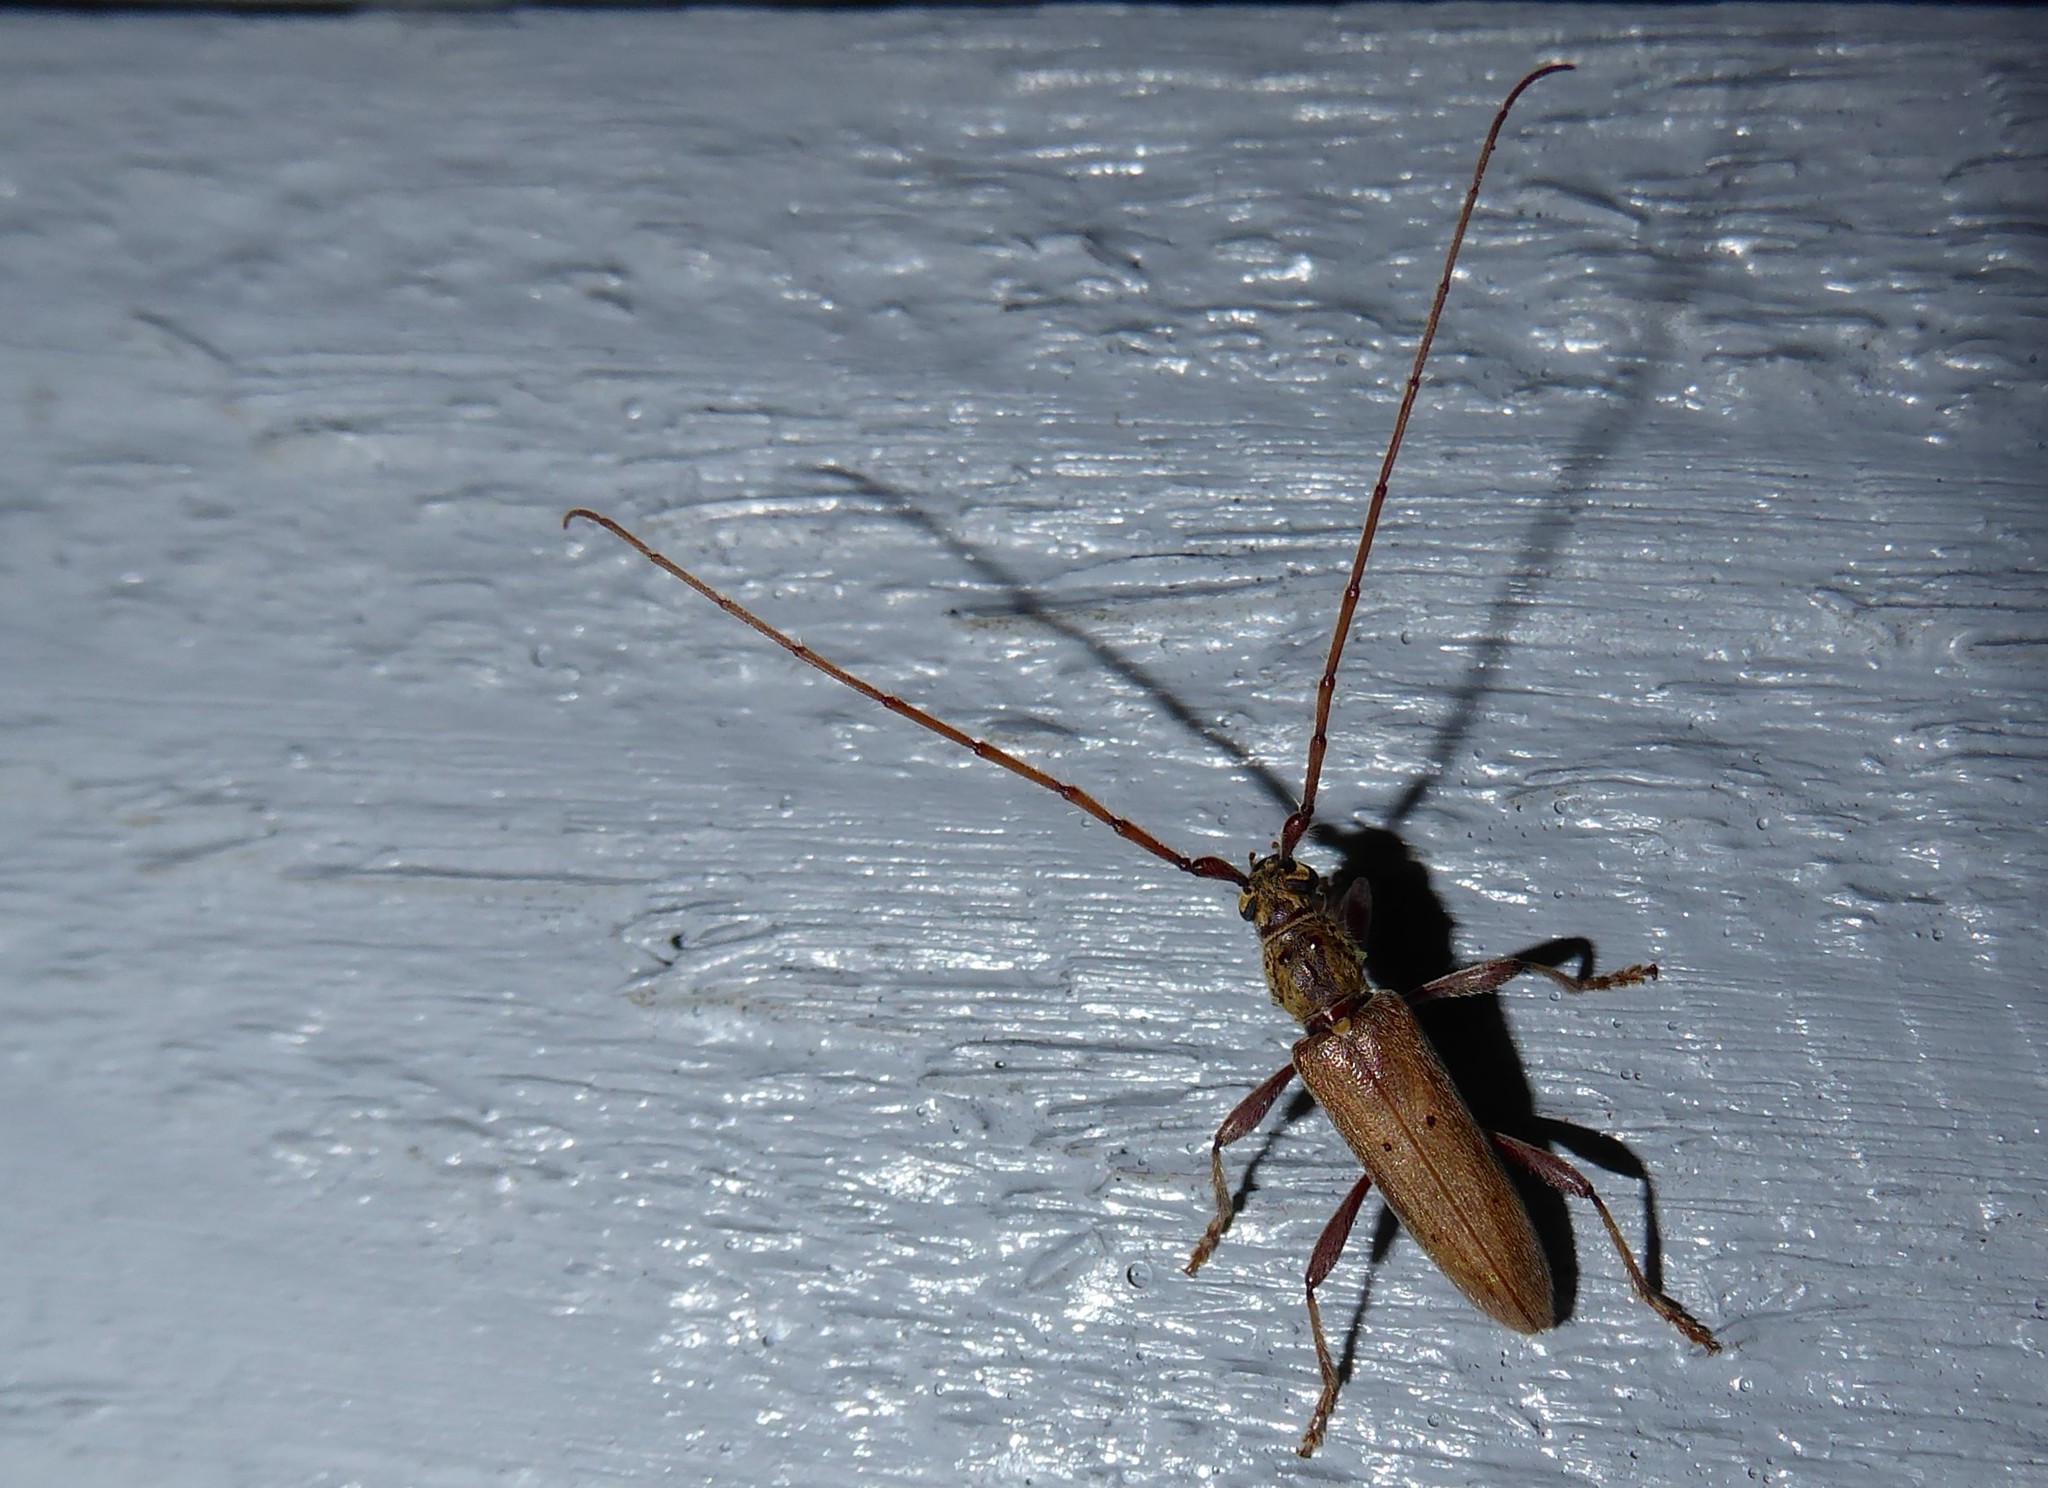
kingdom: Animalia
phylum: Arthropoda
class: Insecta
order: Coleoptera
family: Cerambycidae
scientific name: Cerambycidae
